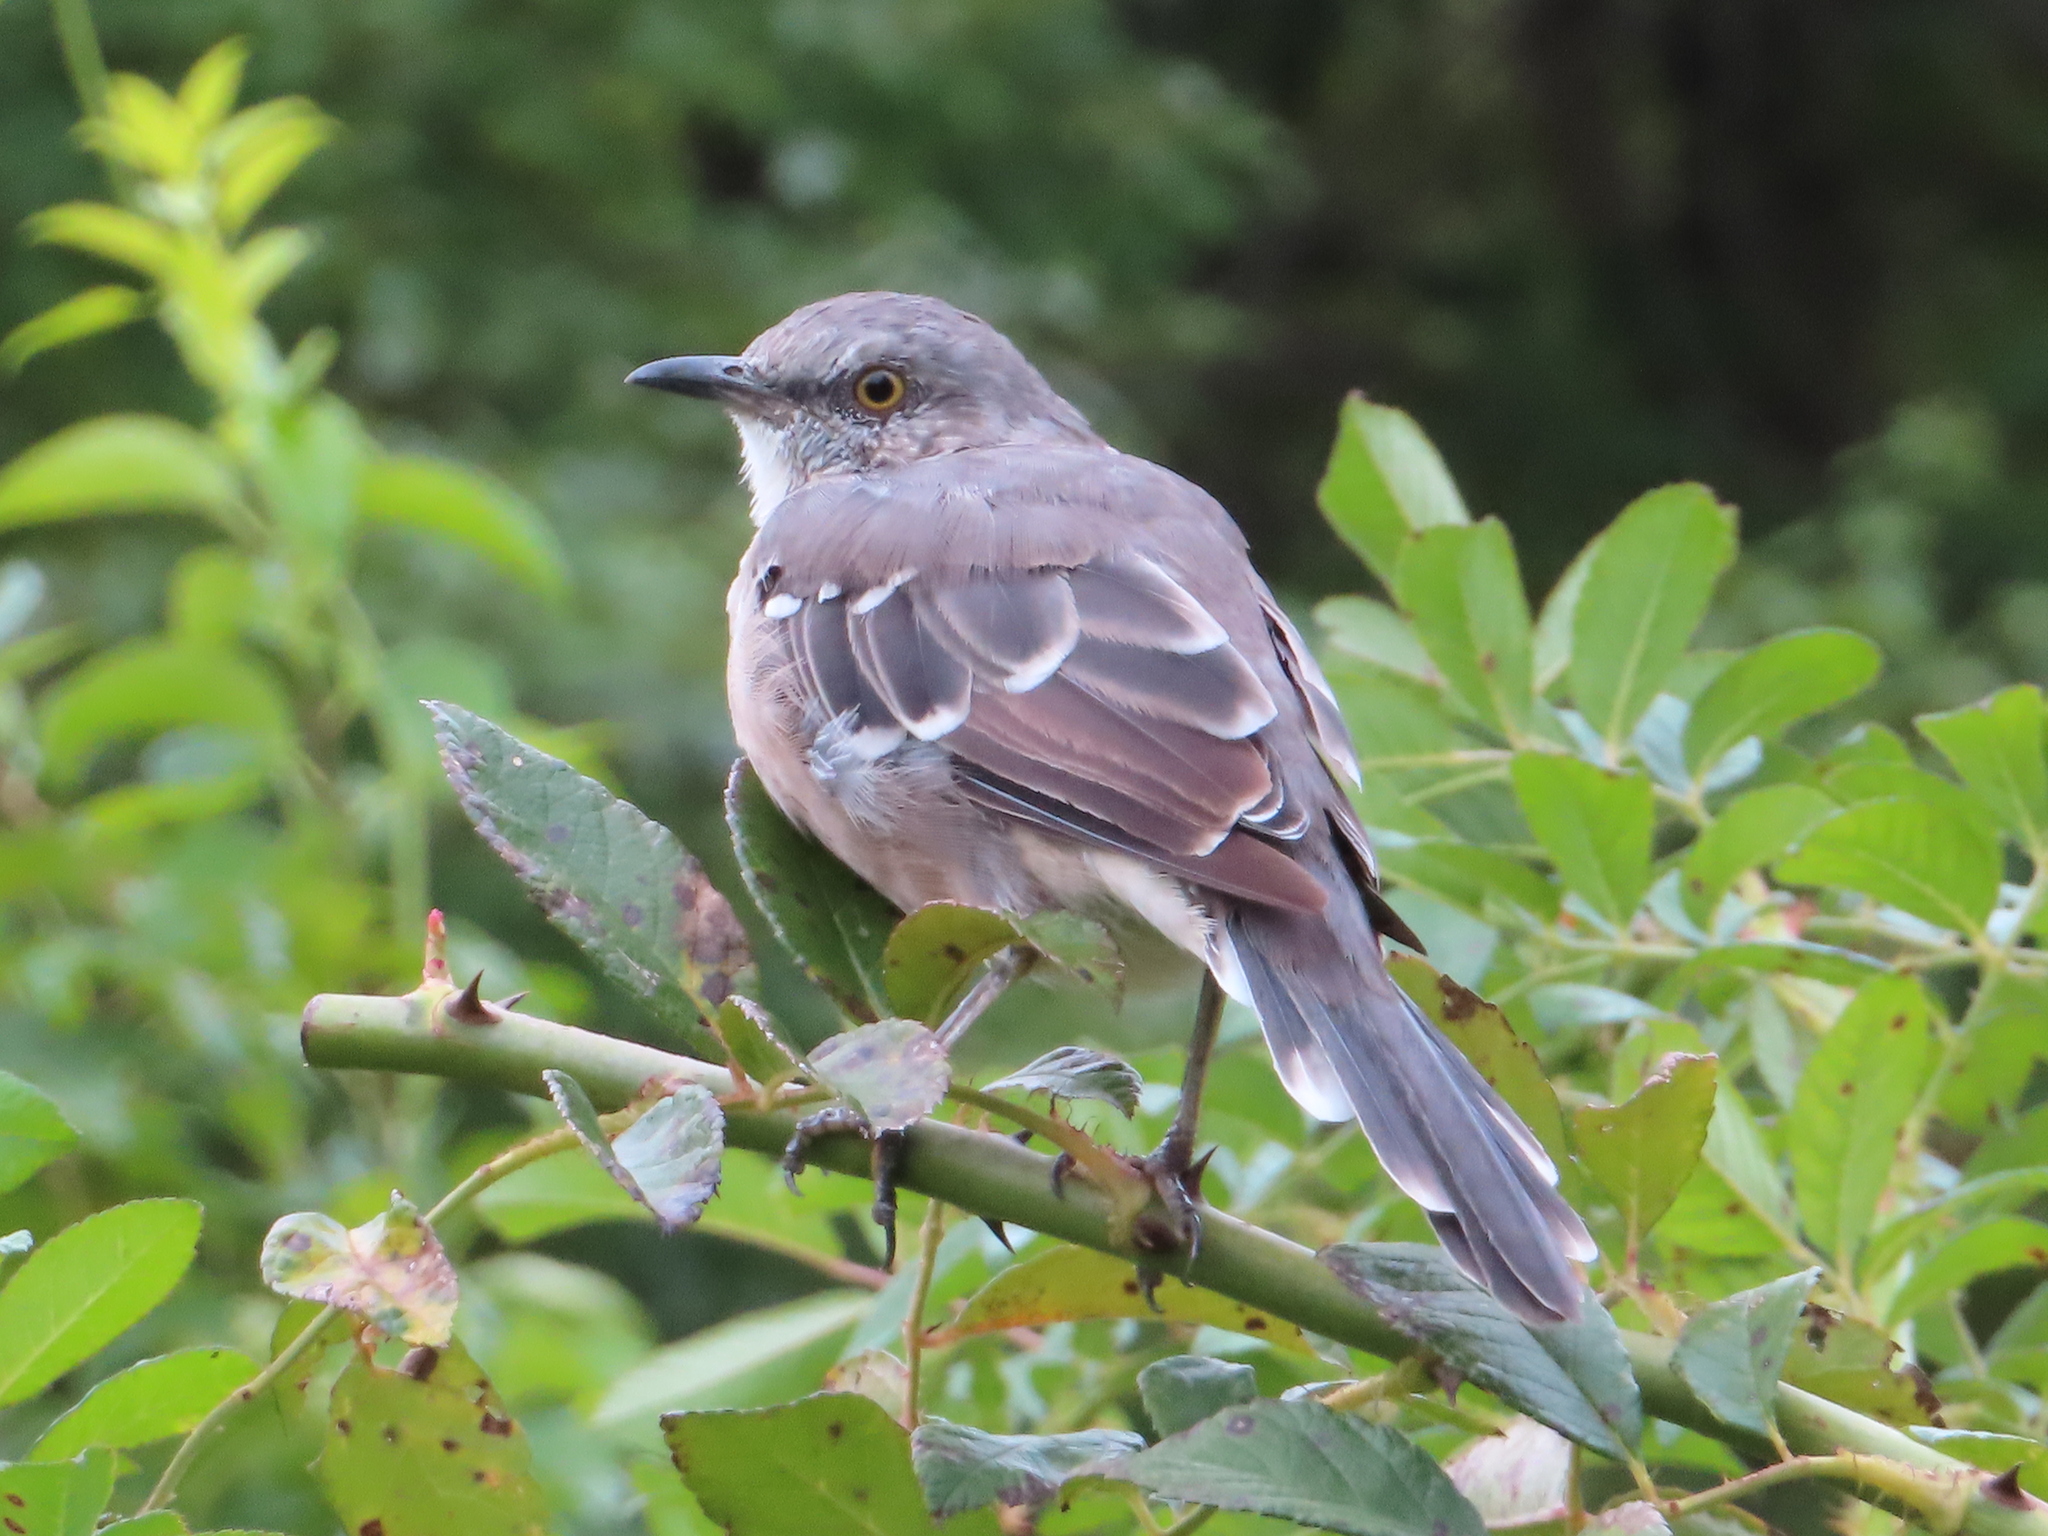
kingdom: Animalia
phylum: Chordata
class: Aves
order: Passeriformes
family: Mimidae
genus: Mimus
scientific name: Mimus polyglottos
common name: Northern mockingbird
